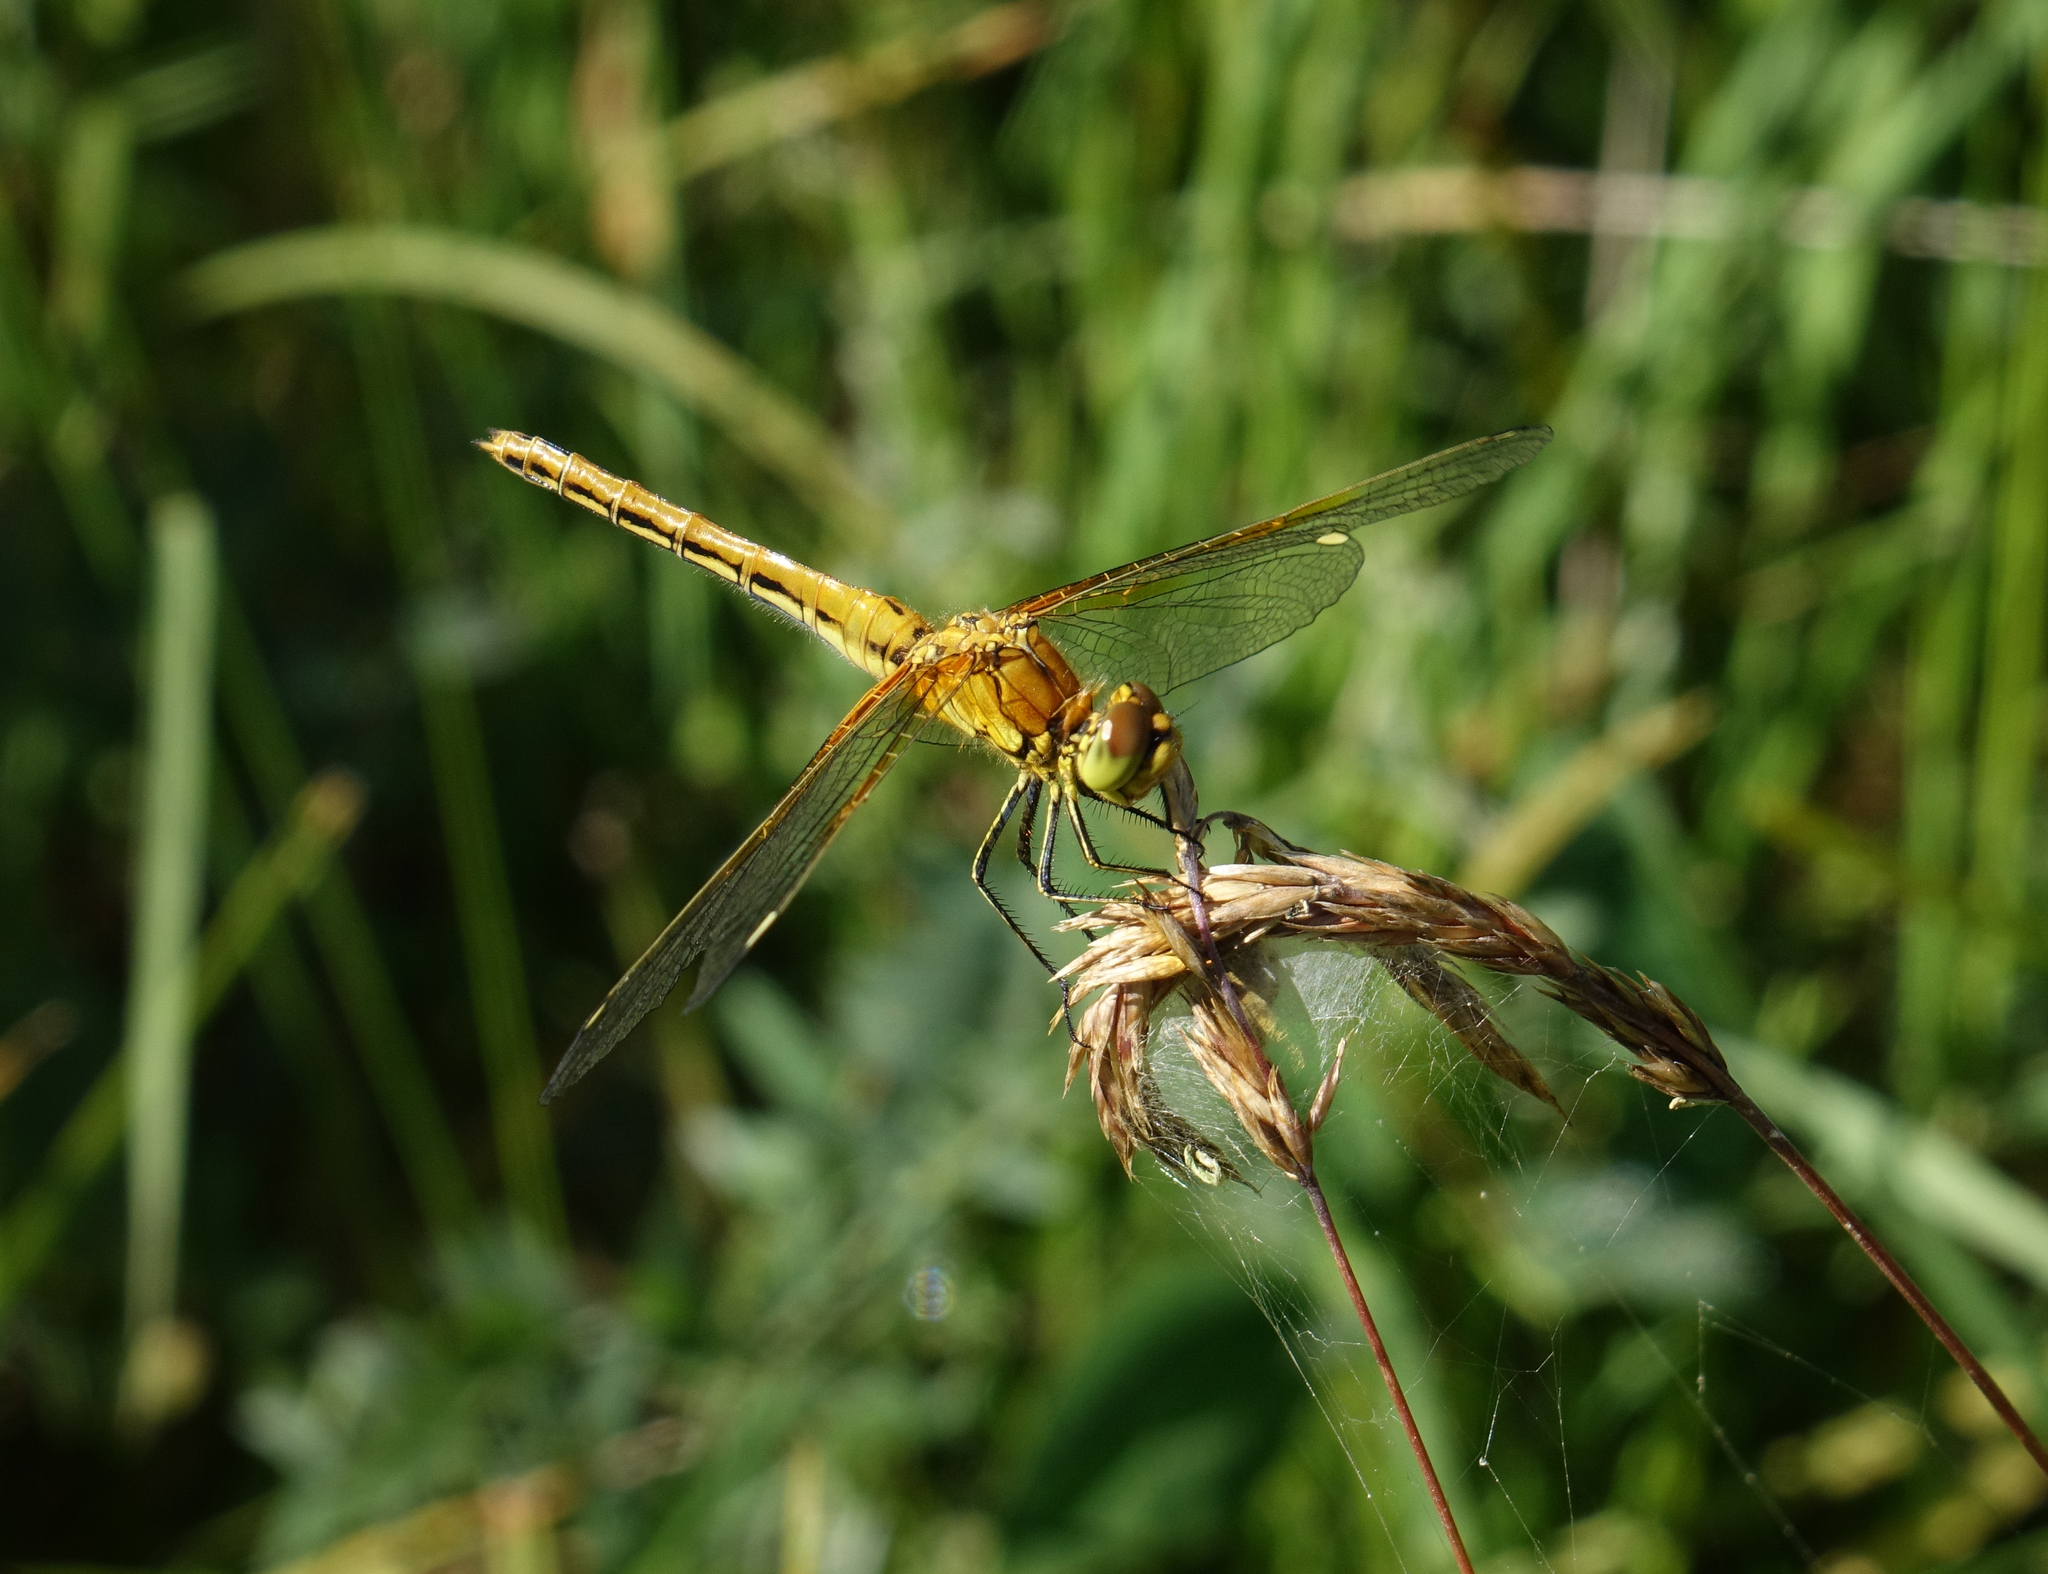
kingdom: Animalia
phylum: Arthropoda
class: Insecta
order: Odonata
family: Libellulidae
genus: Sympetrum
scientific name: Sympetrum flaveolum
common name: Yellow-winged darter
